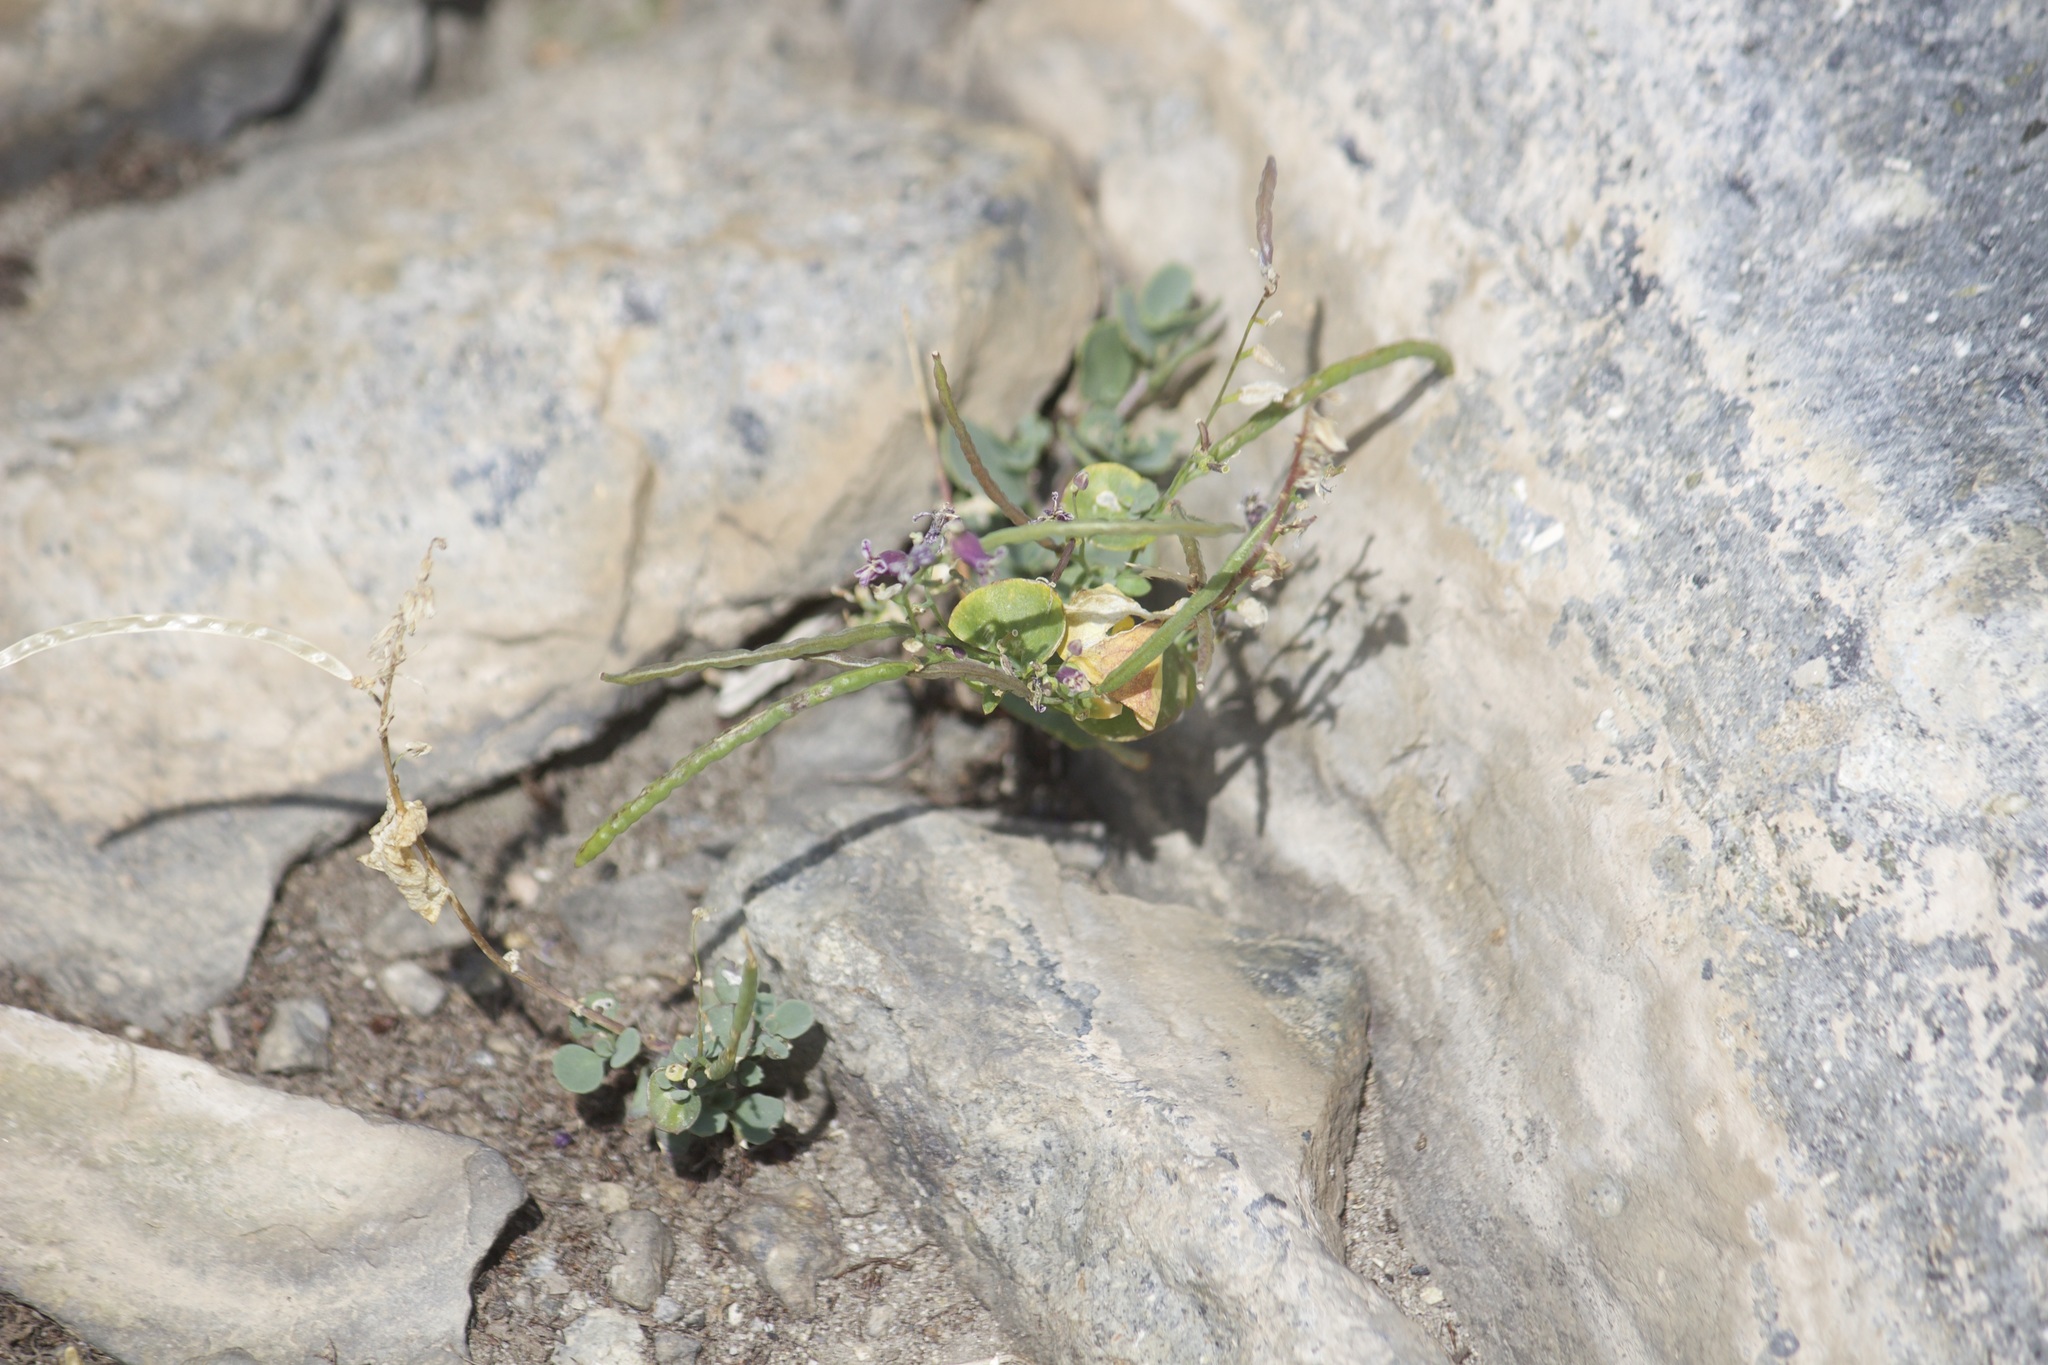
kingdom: Plantae
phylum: Tracheophyta
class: Magnoliopsida
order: Brassicales
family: Brassicaceae
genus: Streptanthus
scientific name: Streptanthus tortuosus
